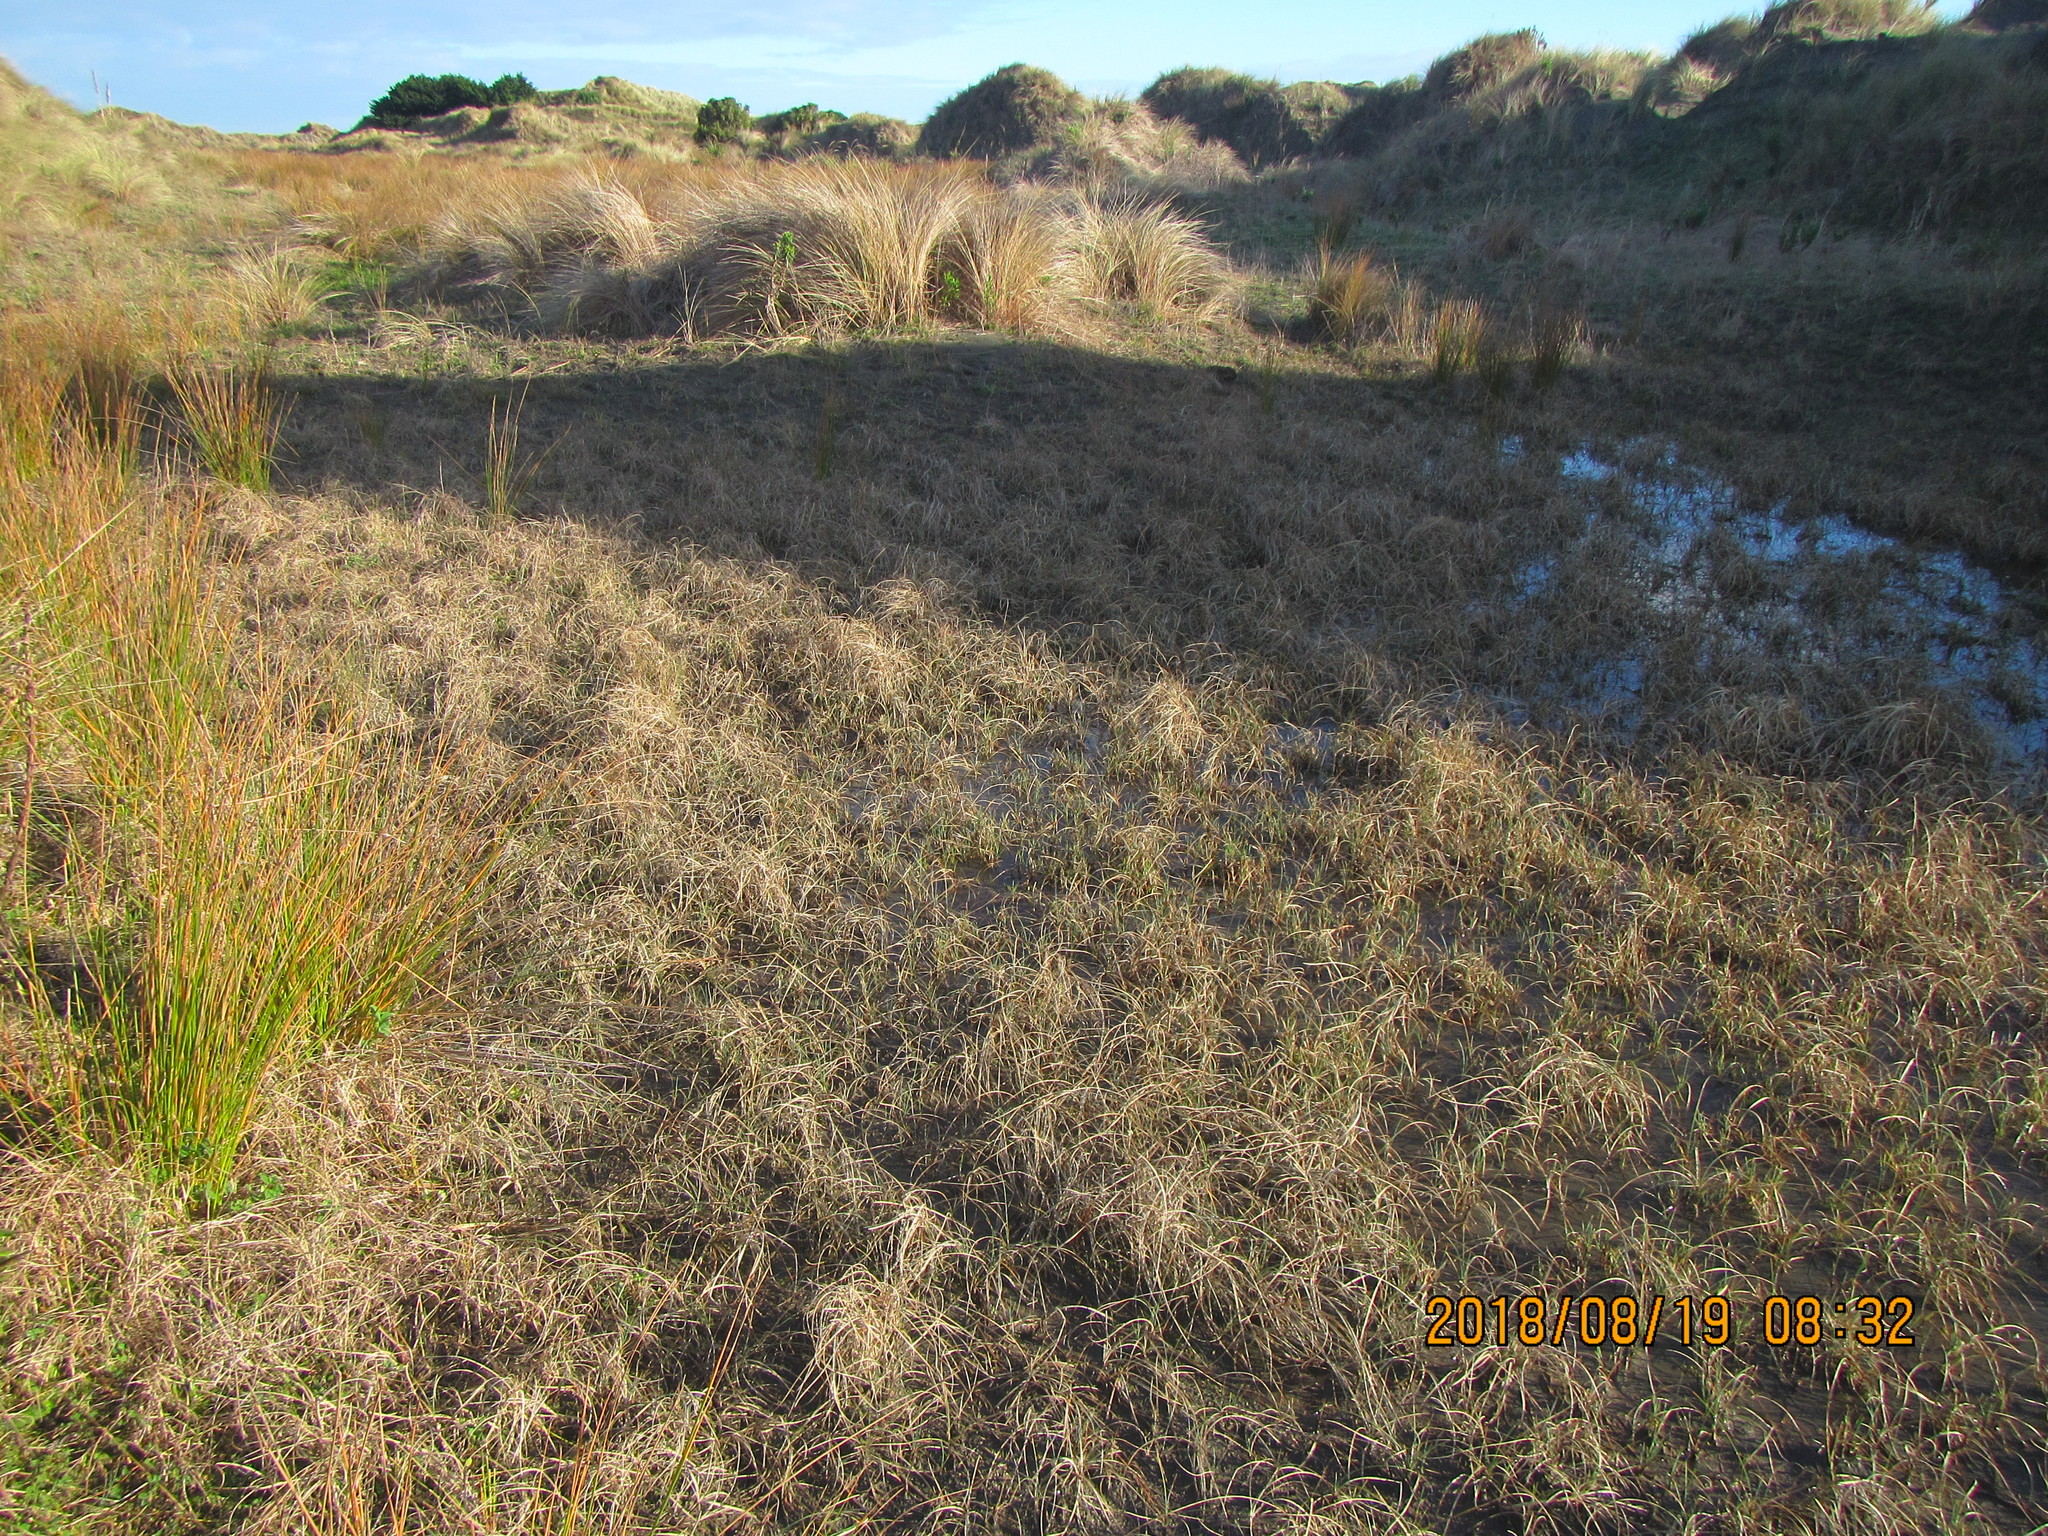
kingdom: Plantae
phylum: Tracheophyta
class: Liliopsida
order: Poales
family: Cyperaceae
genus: Carex
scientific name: Carex pumila
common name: Dwarf sedge
